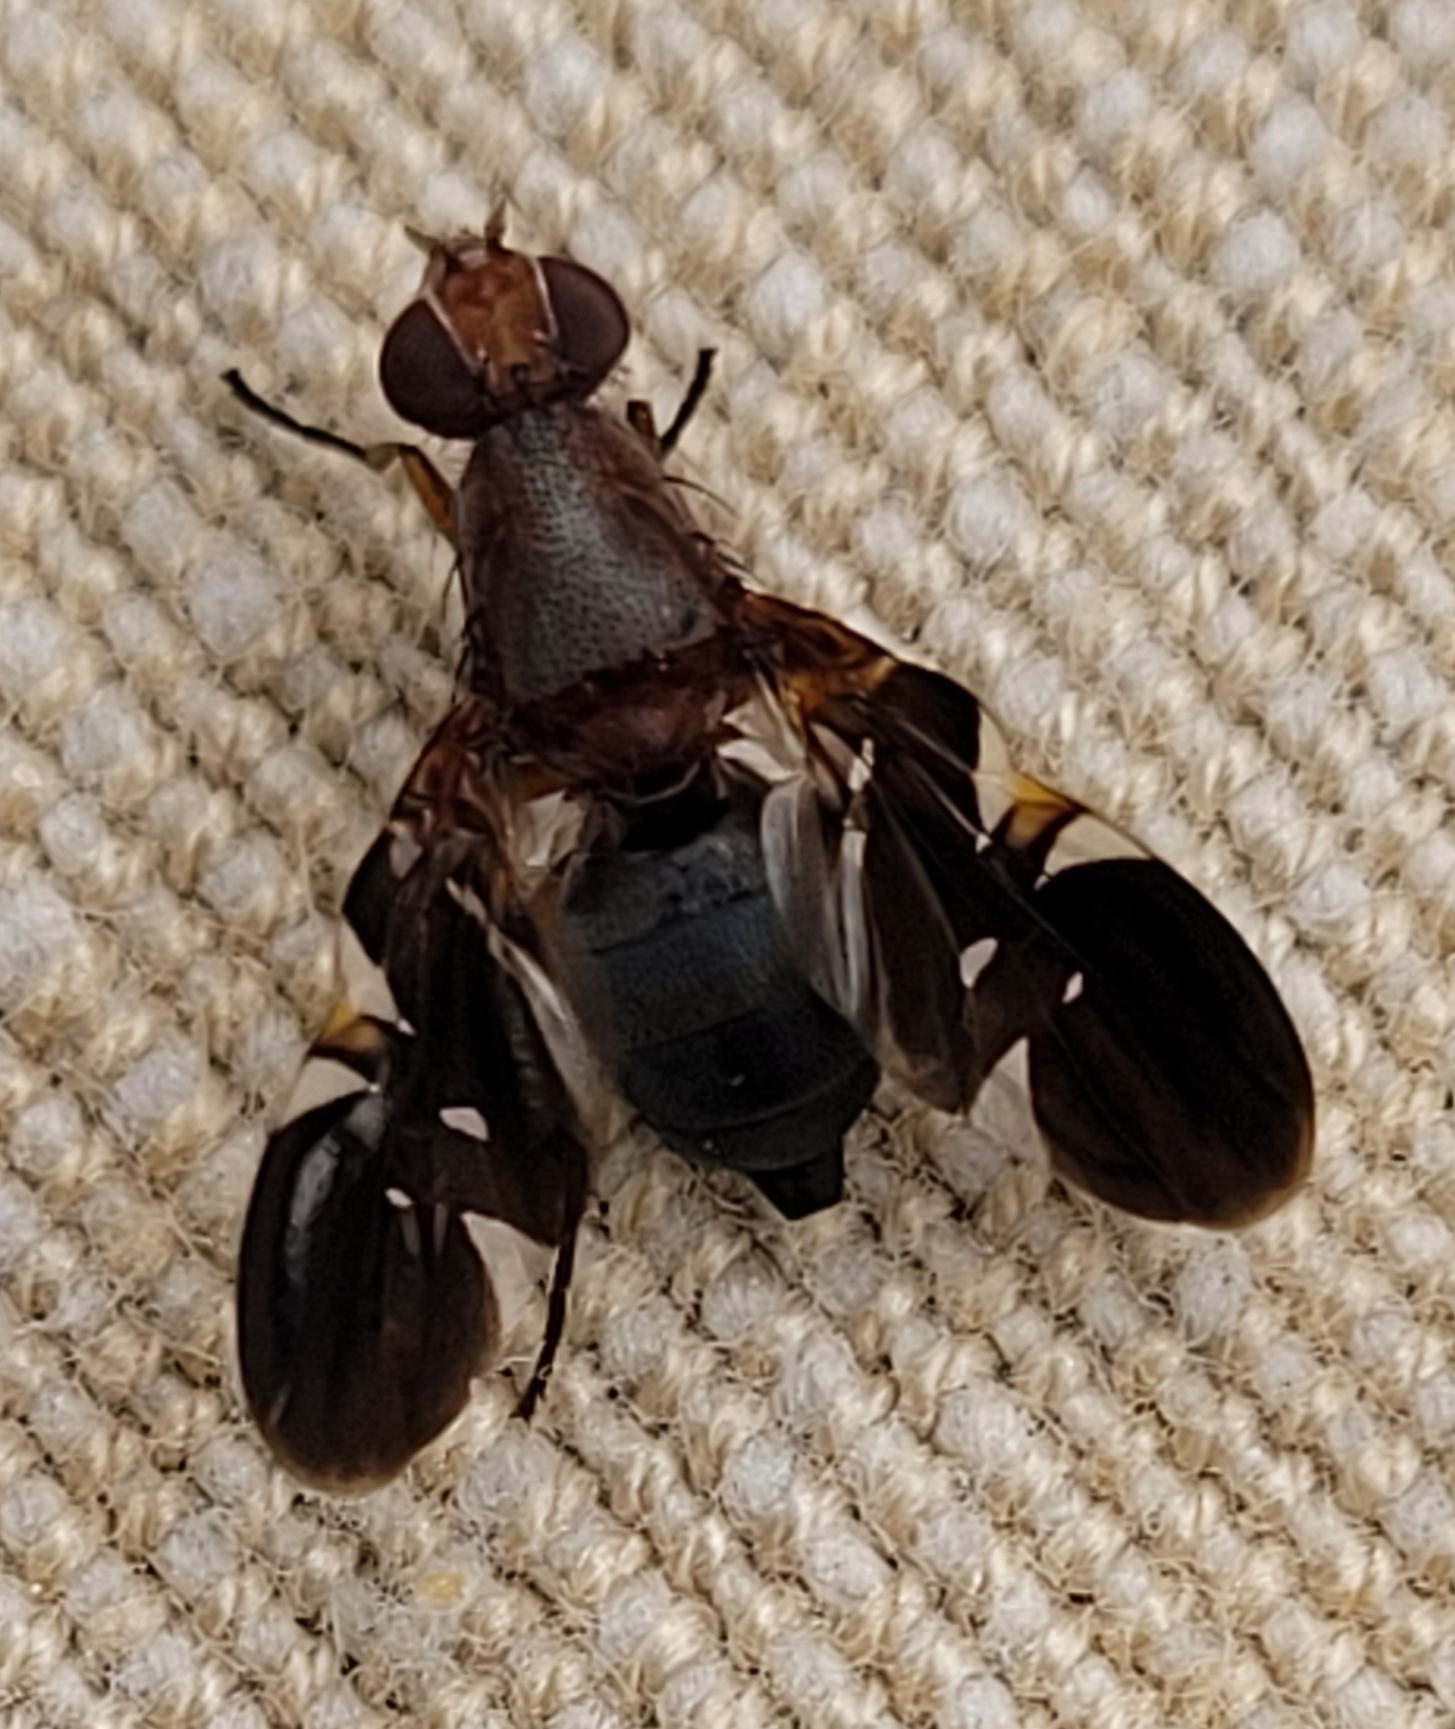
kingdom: Animalia
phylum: Arthropoda
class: Insecta
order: Diptera
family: Ulidiidae
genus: Delphinia
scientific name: Delphinia picta
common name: Common picture-winged fly
